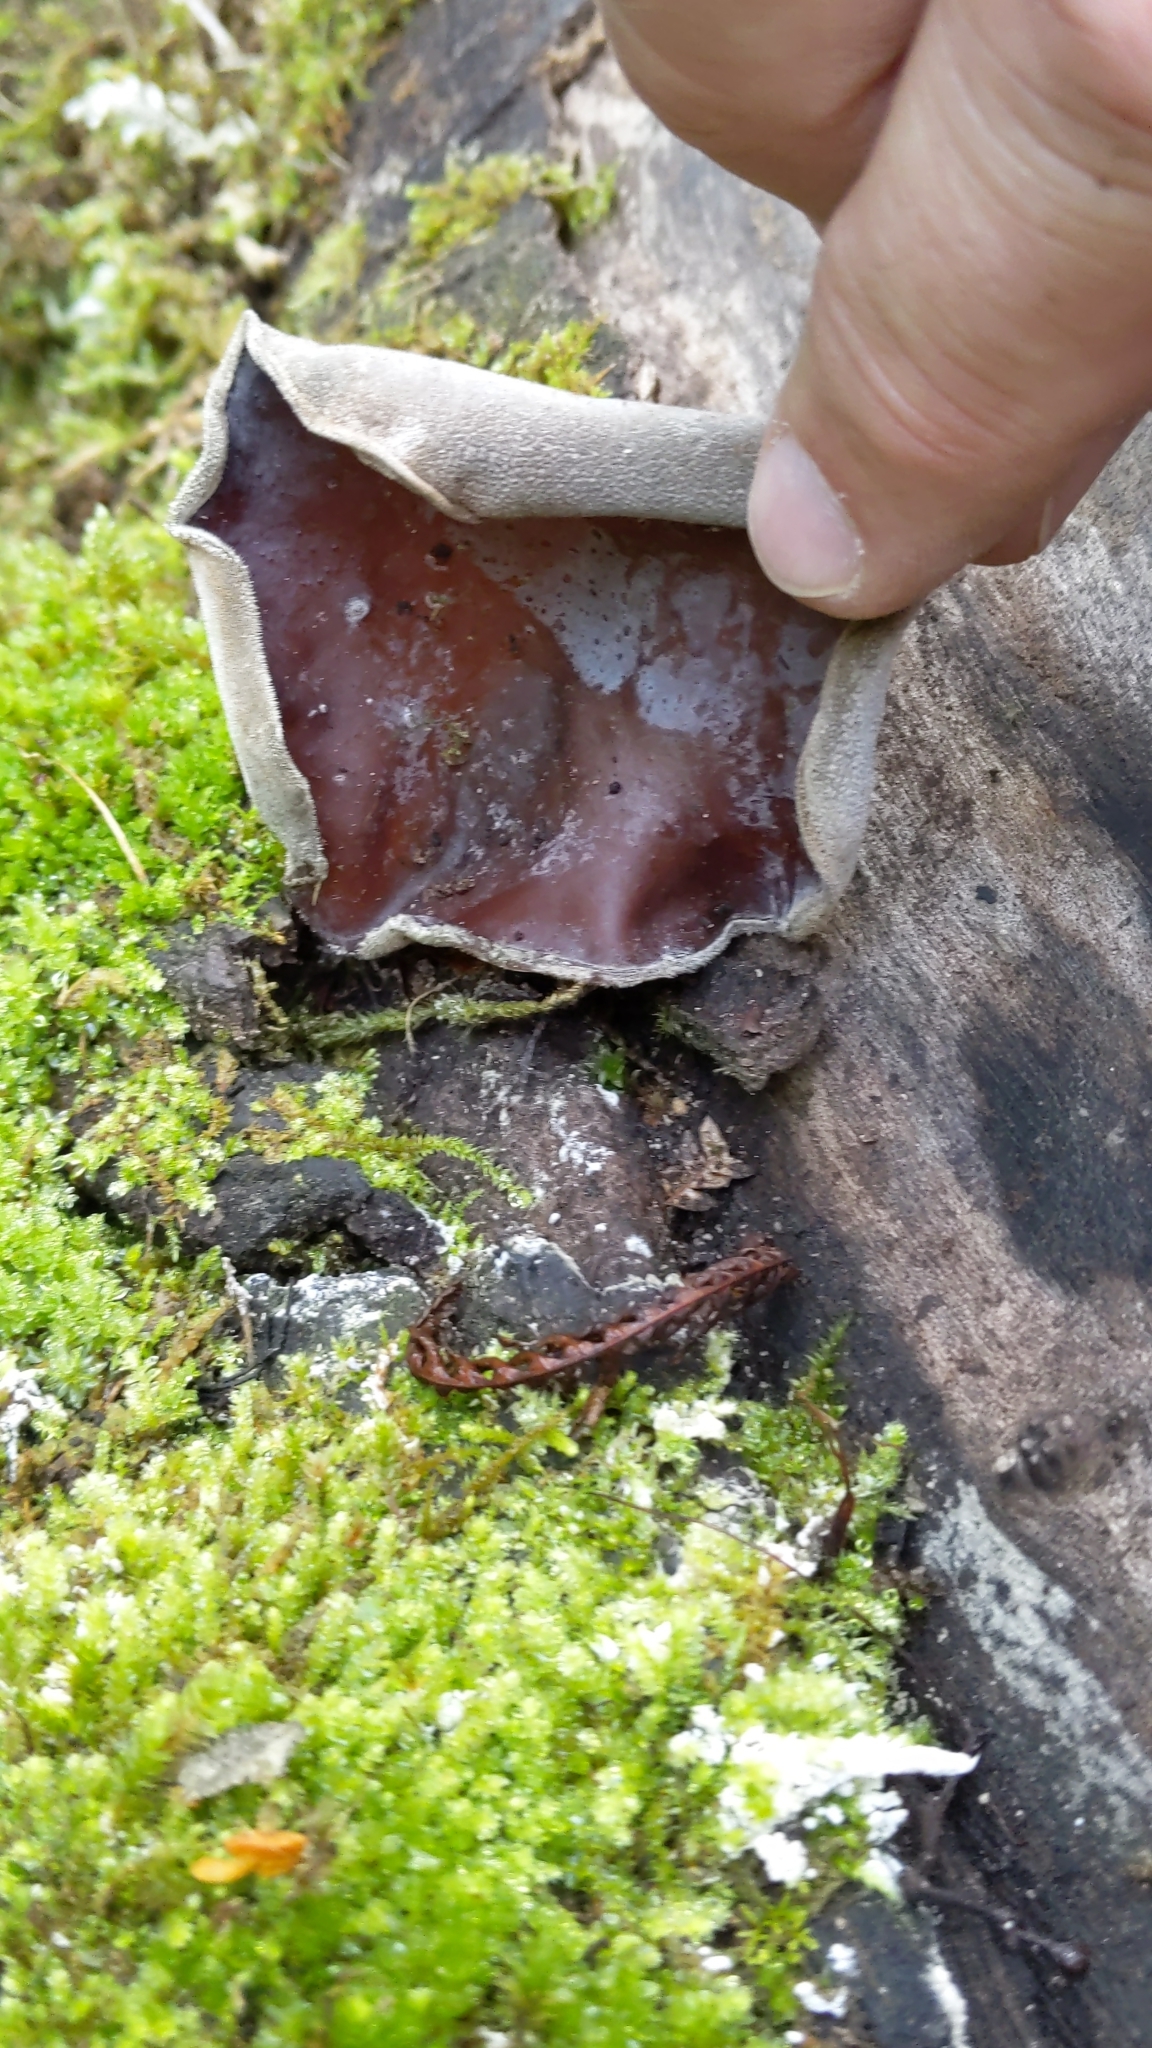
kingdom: Fungi
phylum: Basidiomycota
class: Agaricomycetes
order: Auriculariales
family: Auriculariaceae
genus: Auricularia
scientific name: Auricularia cornea
